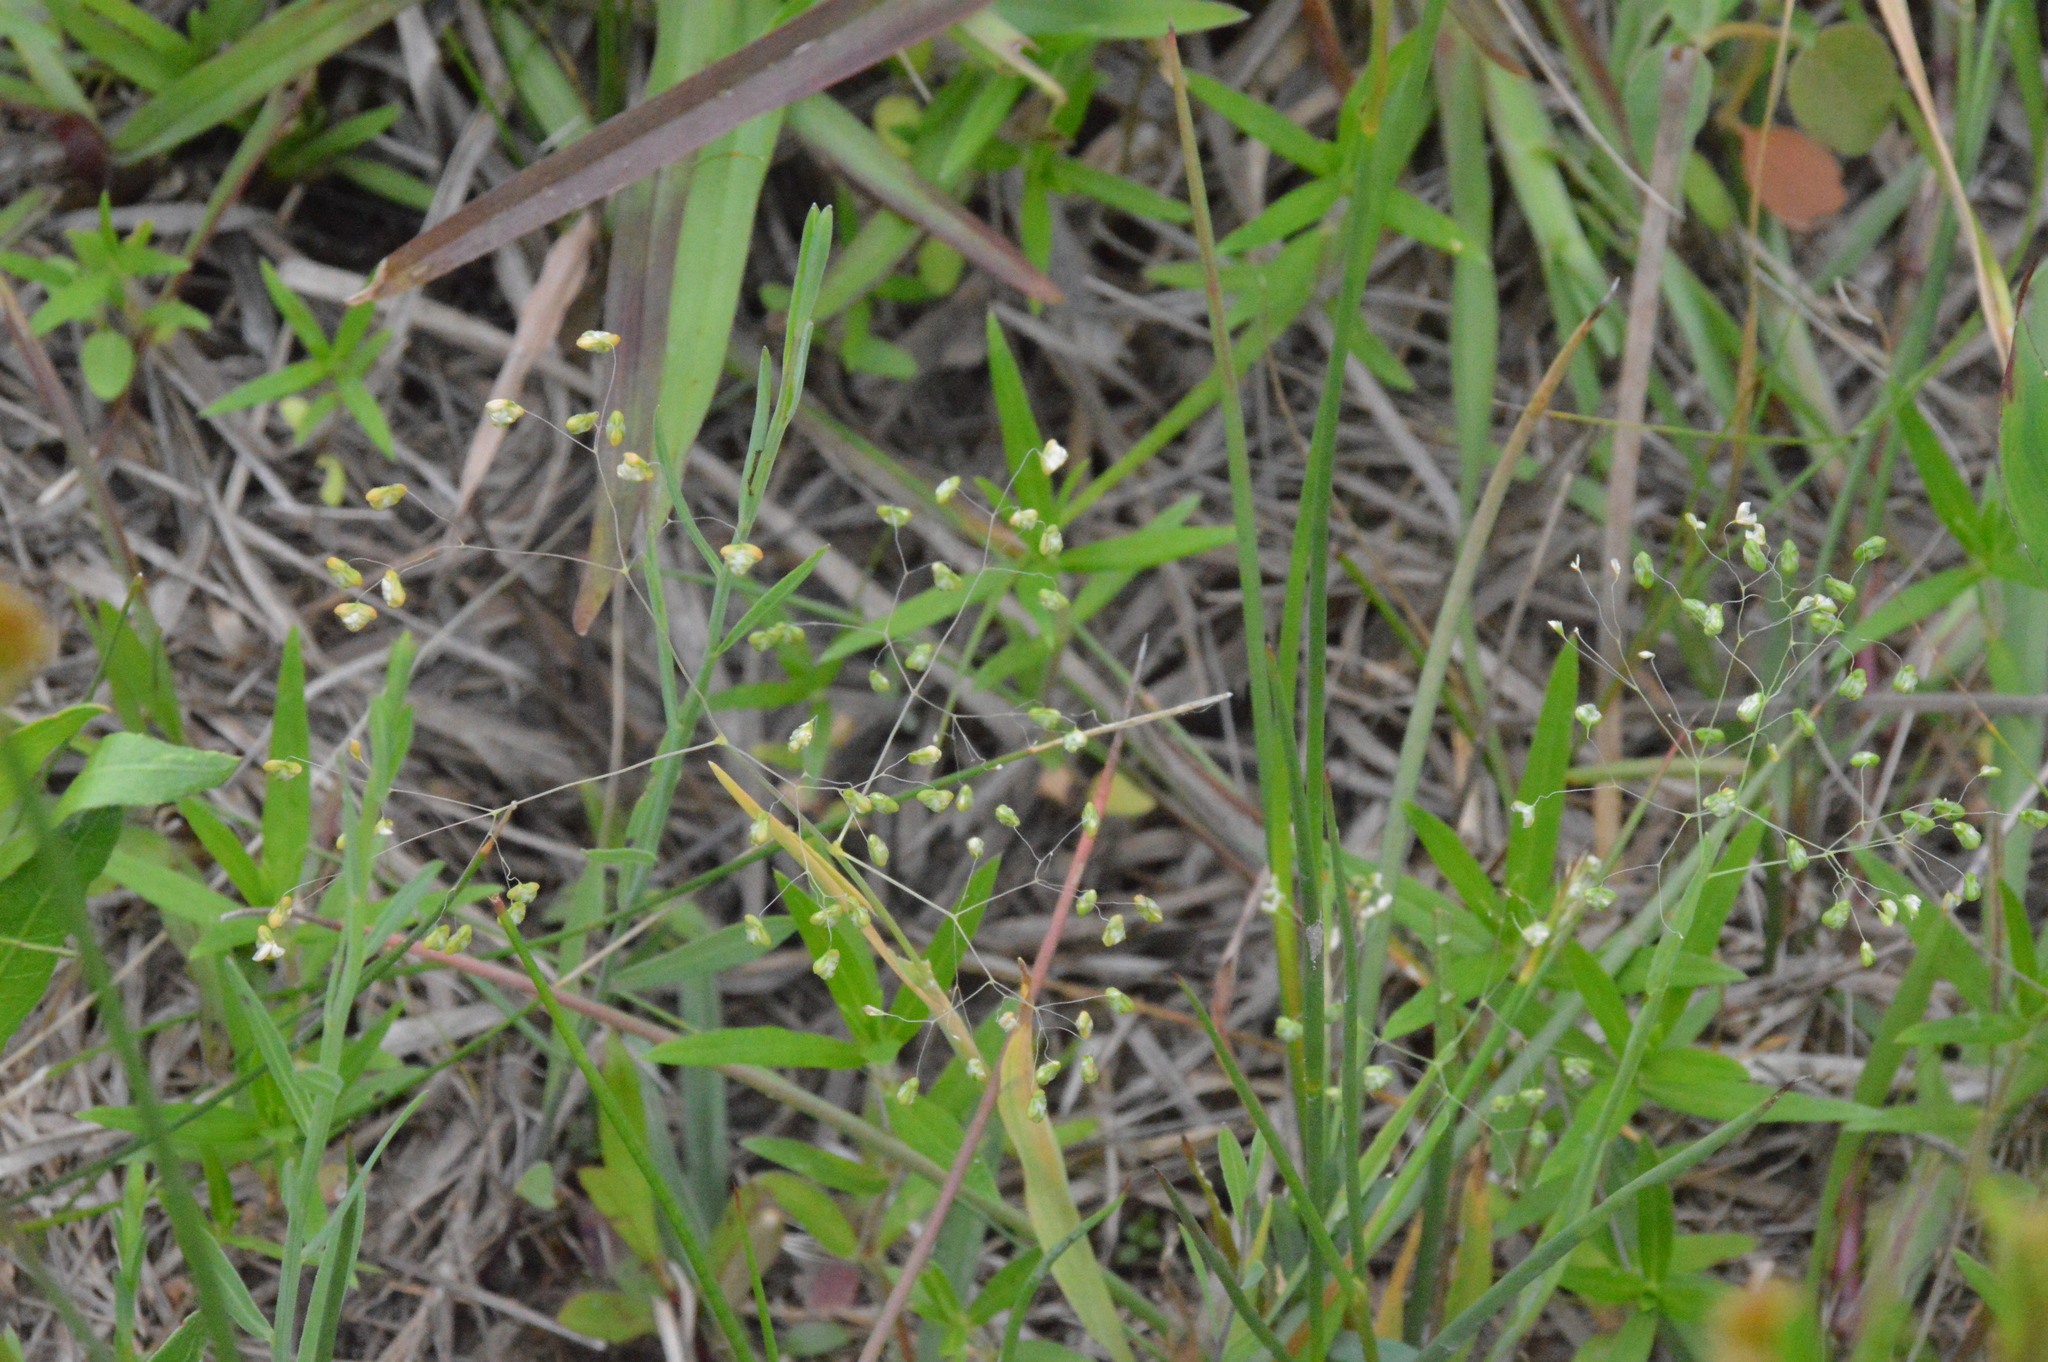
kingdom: Plantae
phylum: Tracheophyta
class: Liliopsida
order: Poales
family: Poaceae
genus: Briza
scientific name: Briza minor
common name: Lesser quaking-grass
